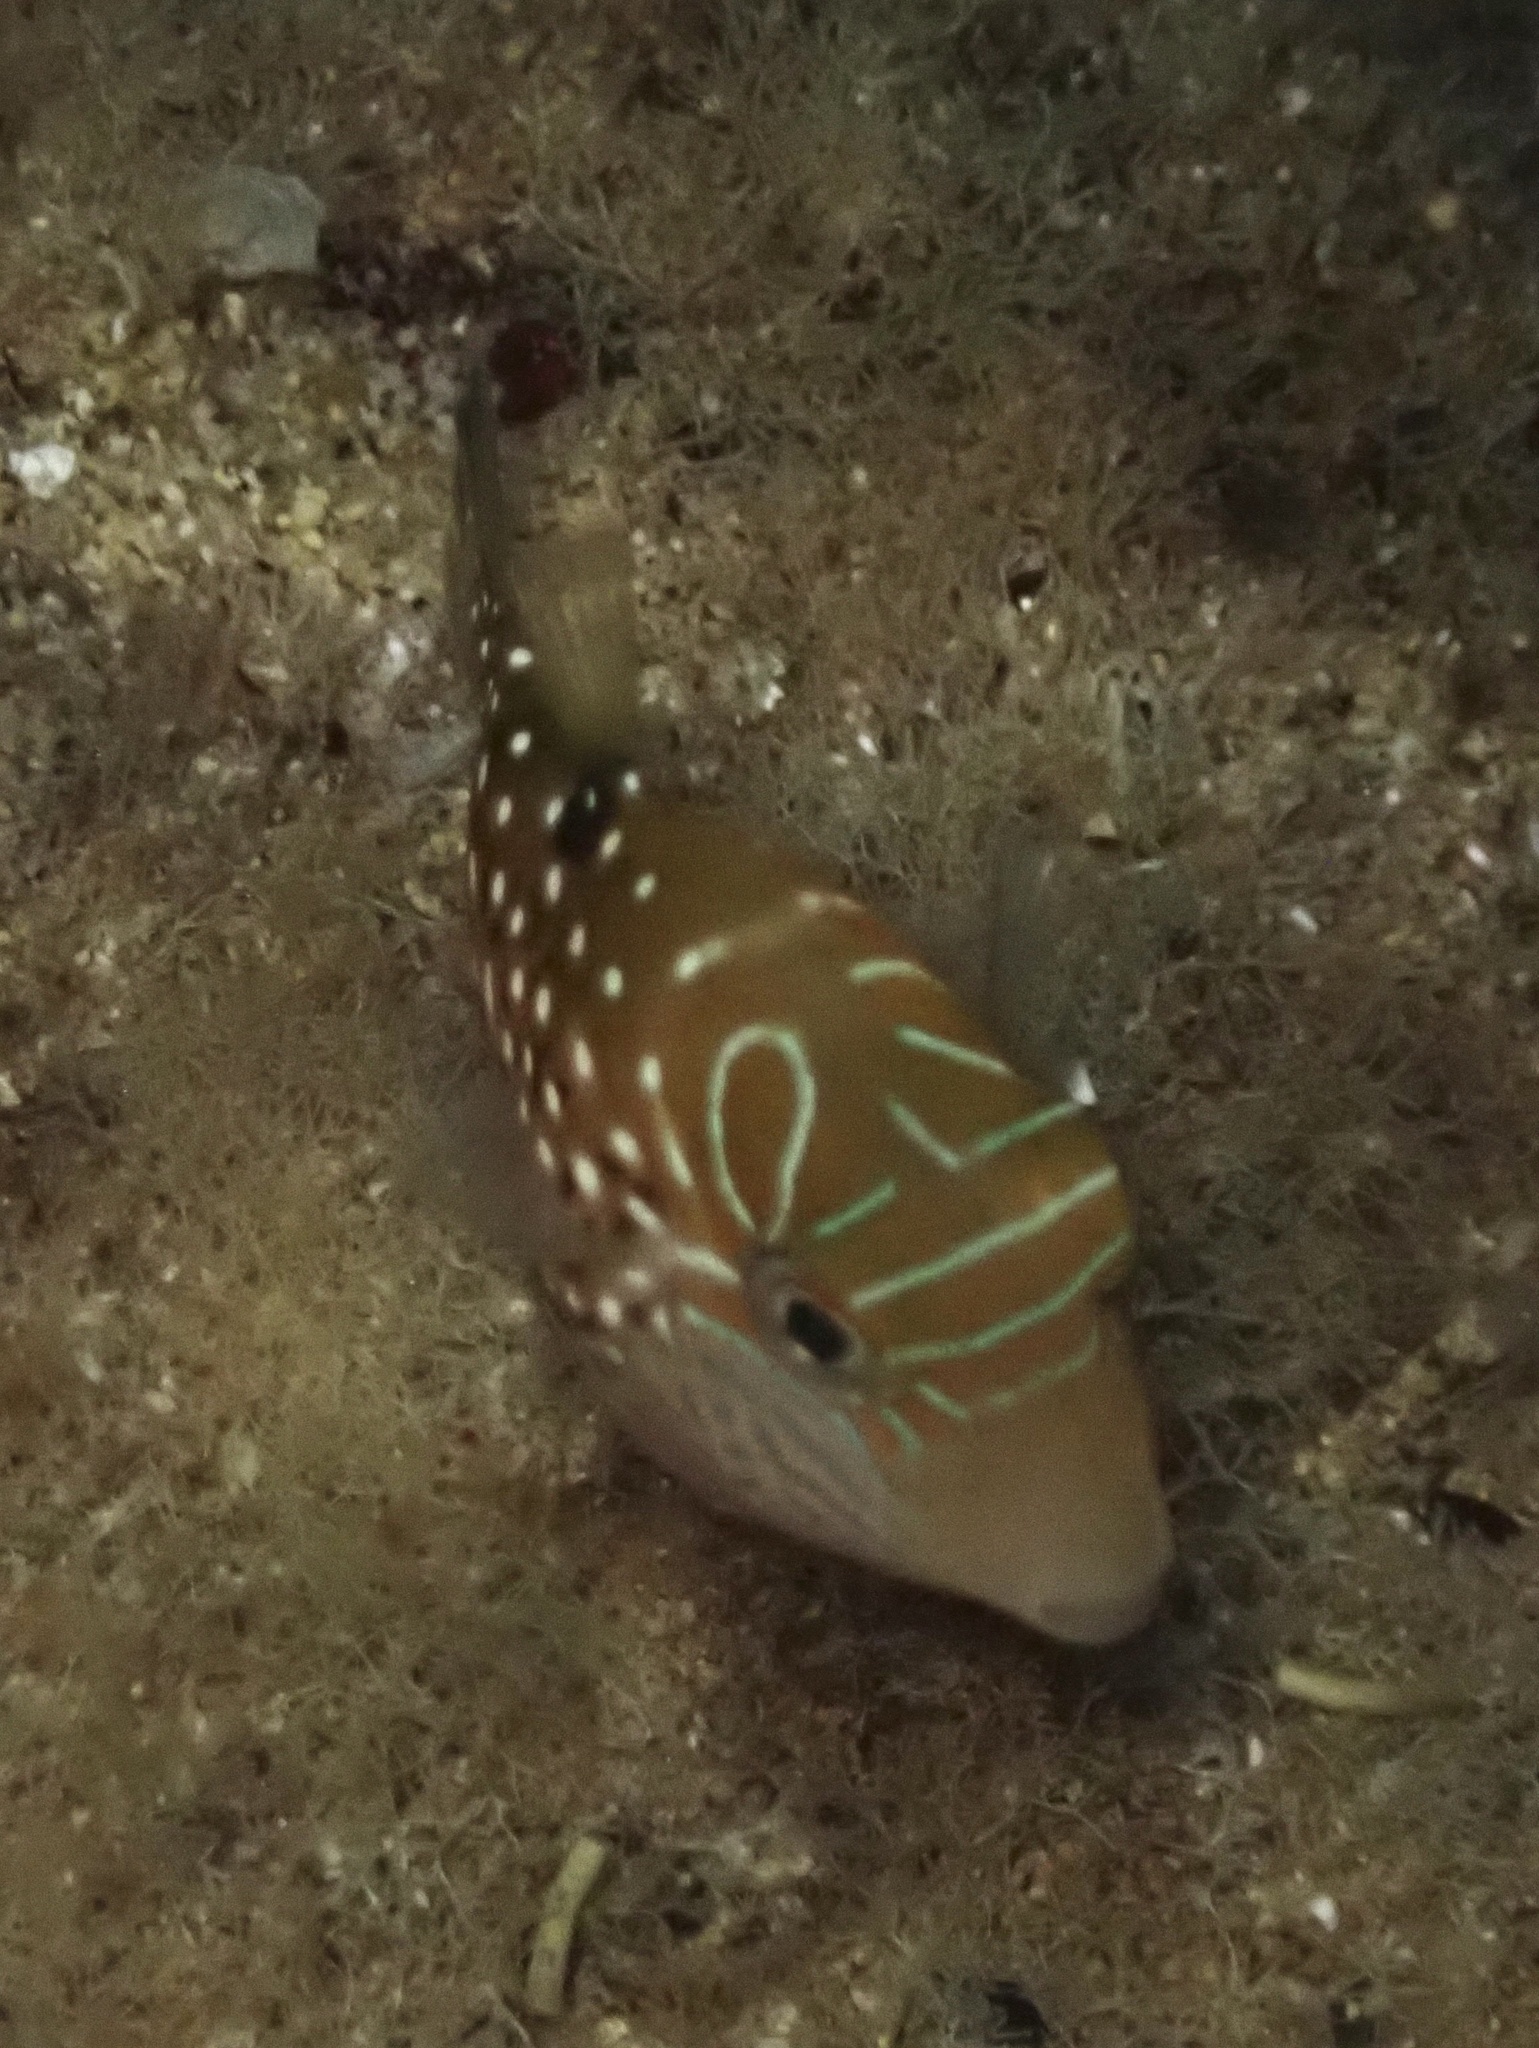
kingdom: Animalia
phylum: Chordata
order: Tetraodontiformes
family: Tetraodontidae
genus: Canthigaster
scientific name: Canthigaster amboinensis
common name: Ambon pufferfish
